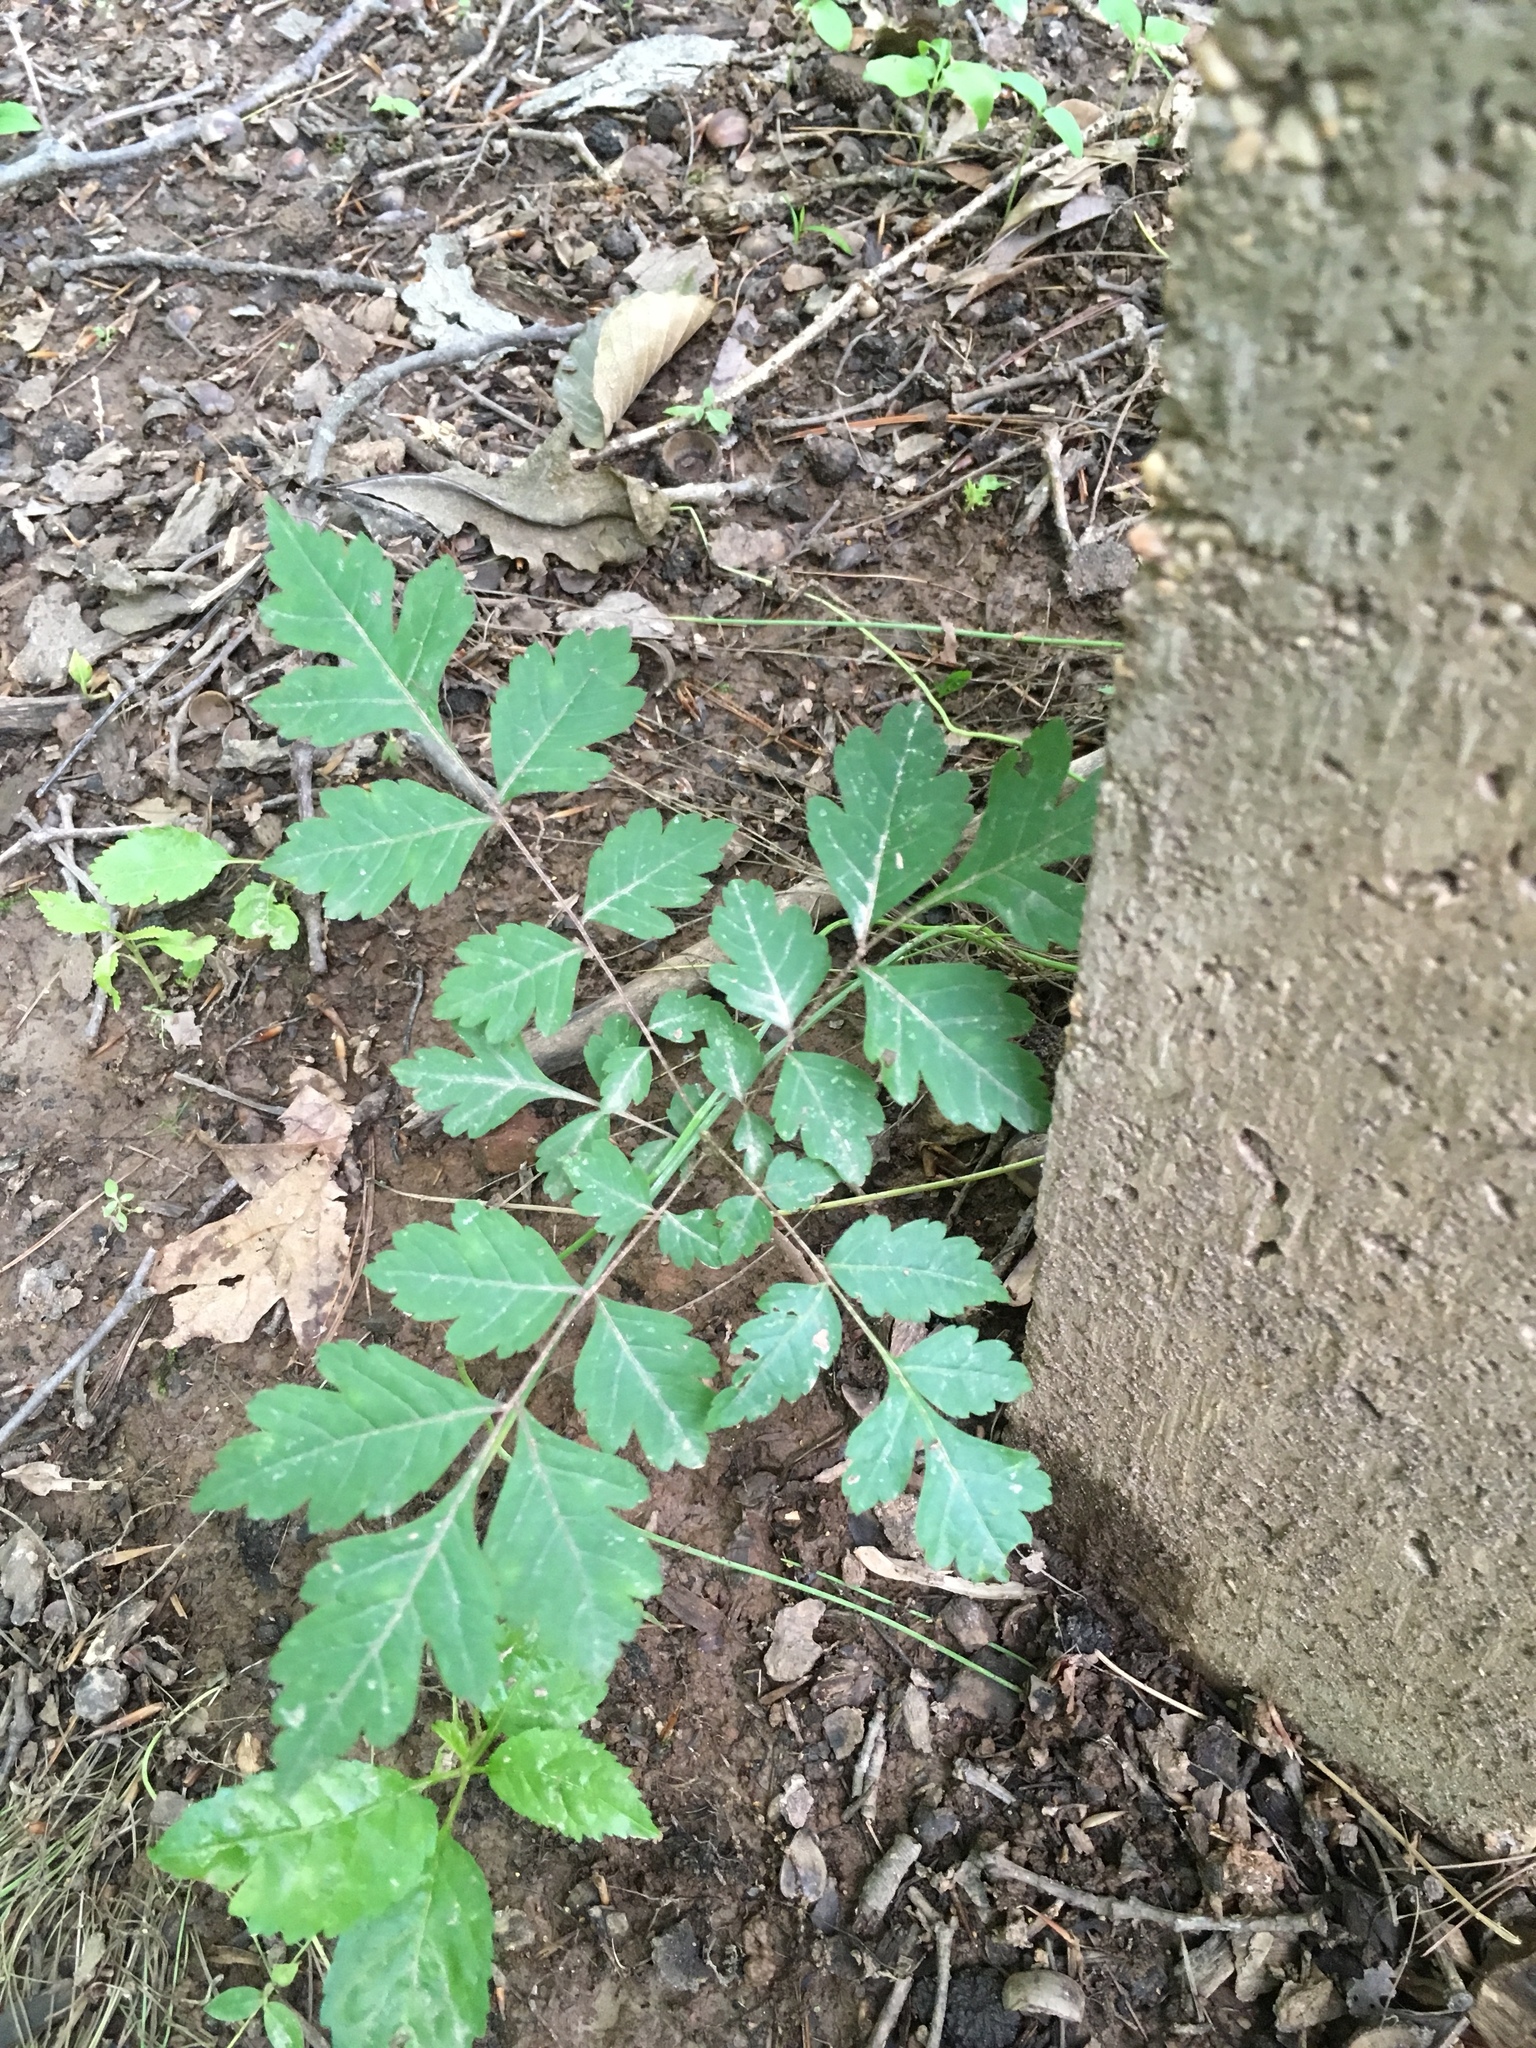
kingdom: Plantae
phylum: Tracheophyta
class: Magnoliopsida
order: Sapindales
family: Sapindaceae
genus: Koelreuteria
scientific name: Koelreuteria paniculata
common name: Pride-of-india
